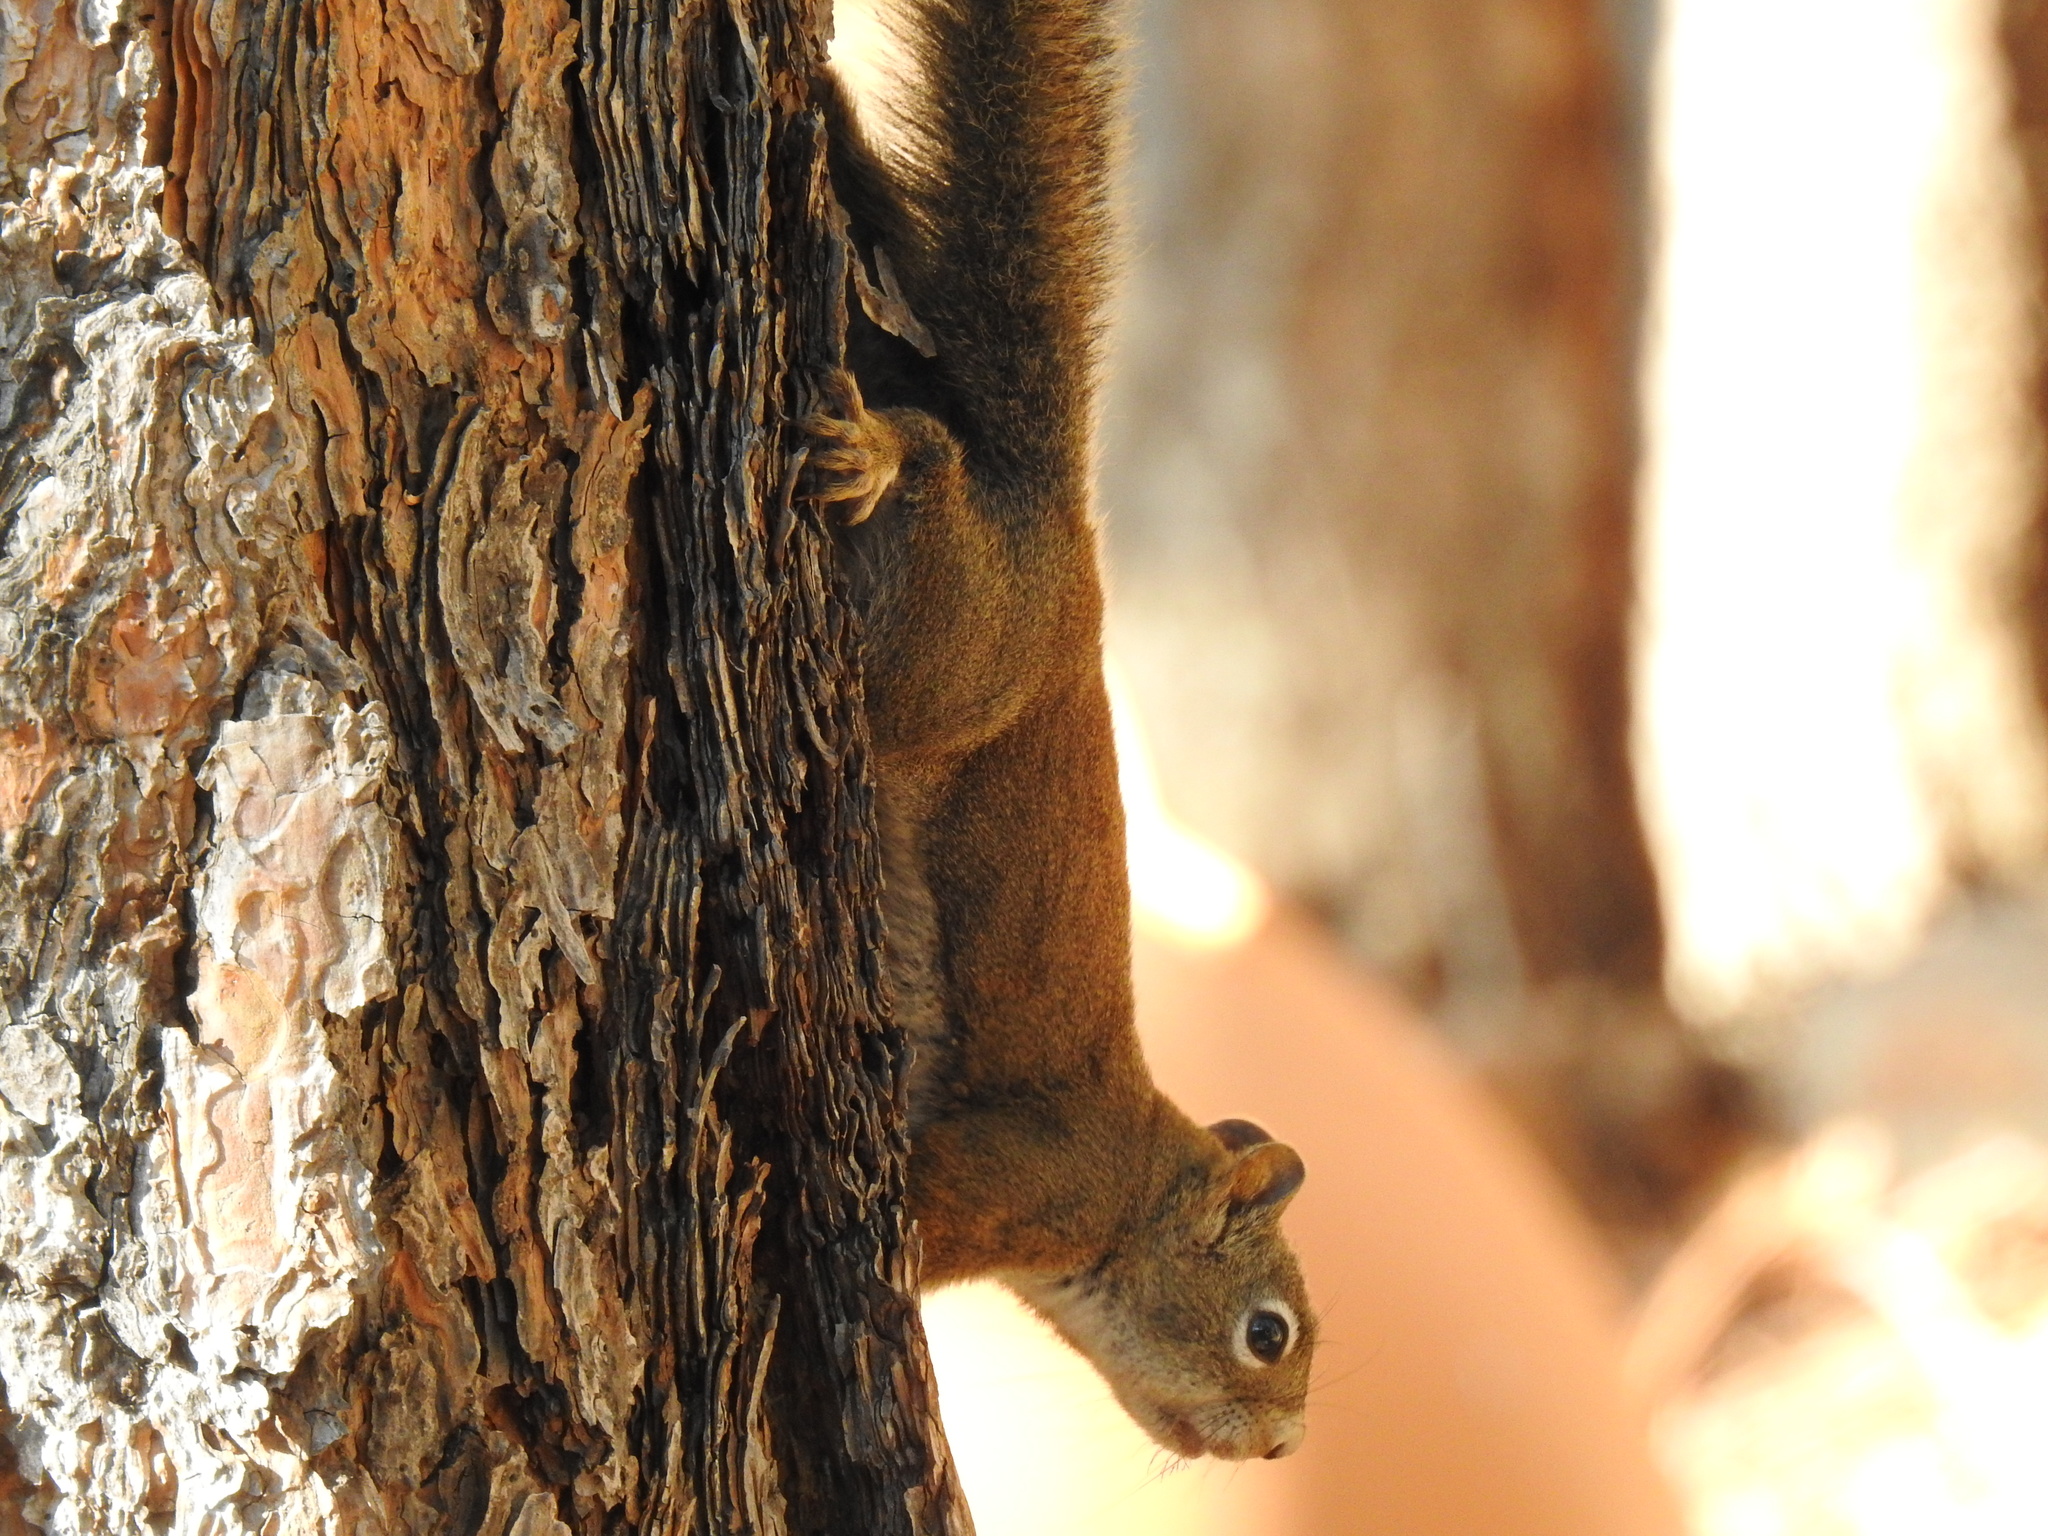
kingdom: Animalia
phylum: Chordata
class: Mammalia
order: Rodentia
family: Sciuridae
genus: Tamiasciurus
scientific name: Tamiasciurus hudsonicus
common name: Red squirrel
